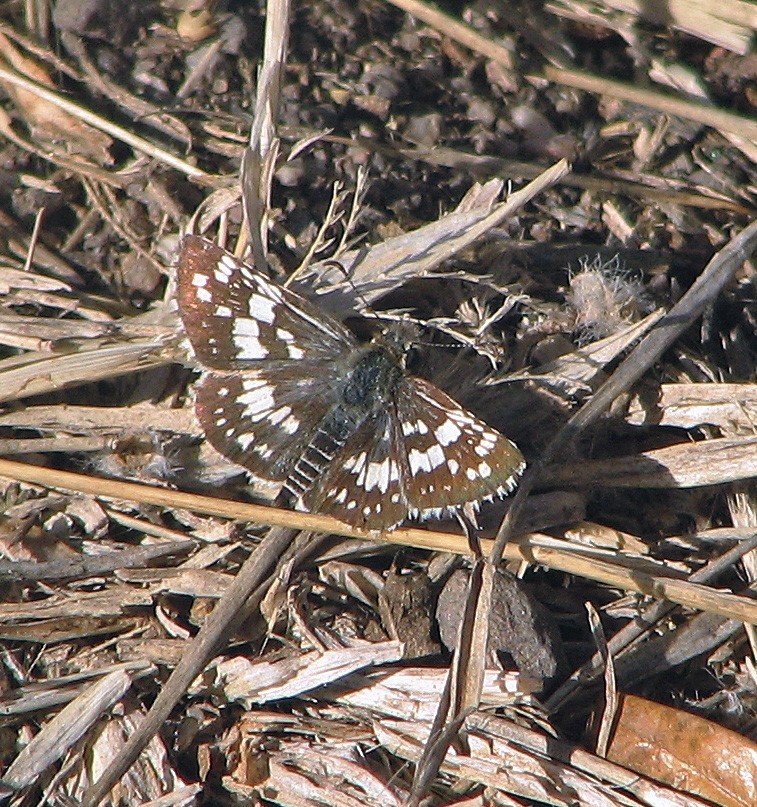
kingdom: Animalia
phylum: Arthropoda
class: Insecta
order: Lepidoptera
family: Hesperiidae
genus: Burnsius
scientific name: Burnsius orcynoides
